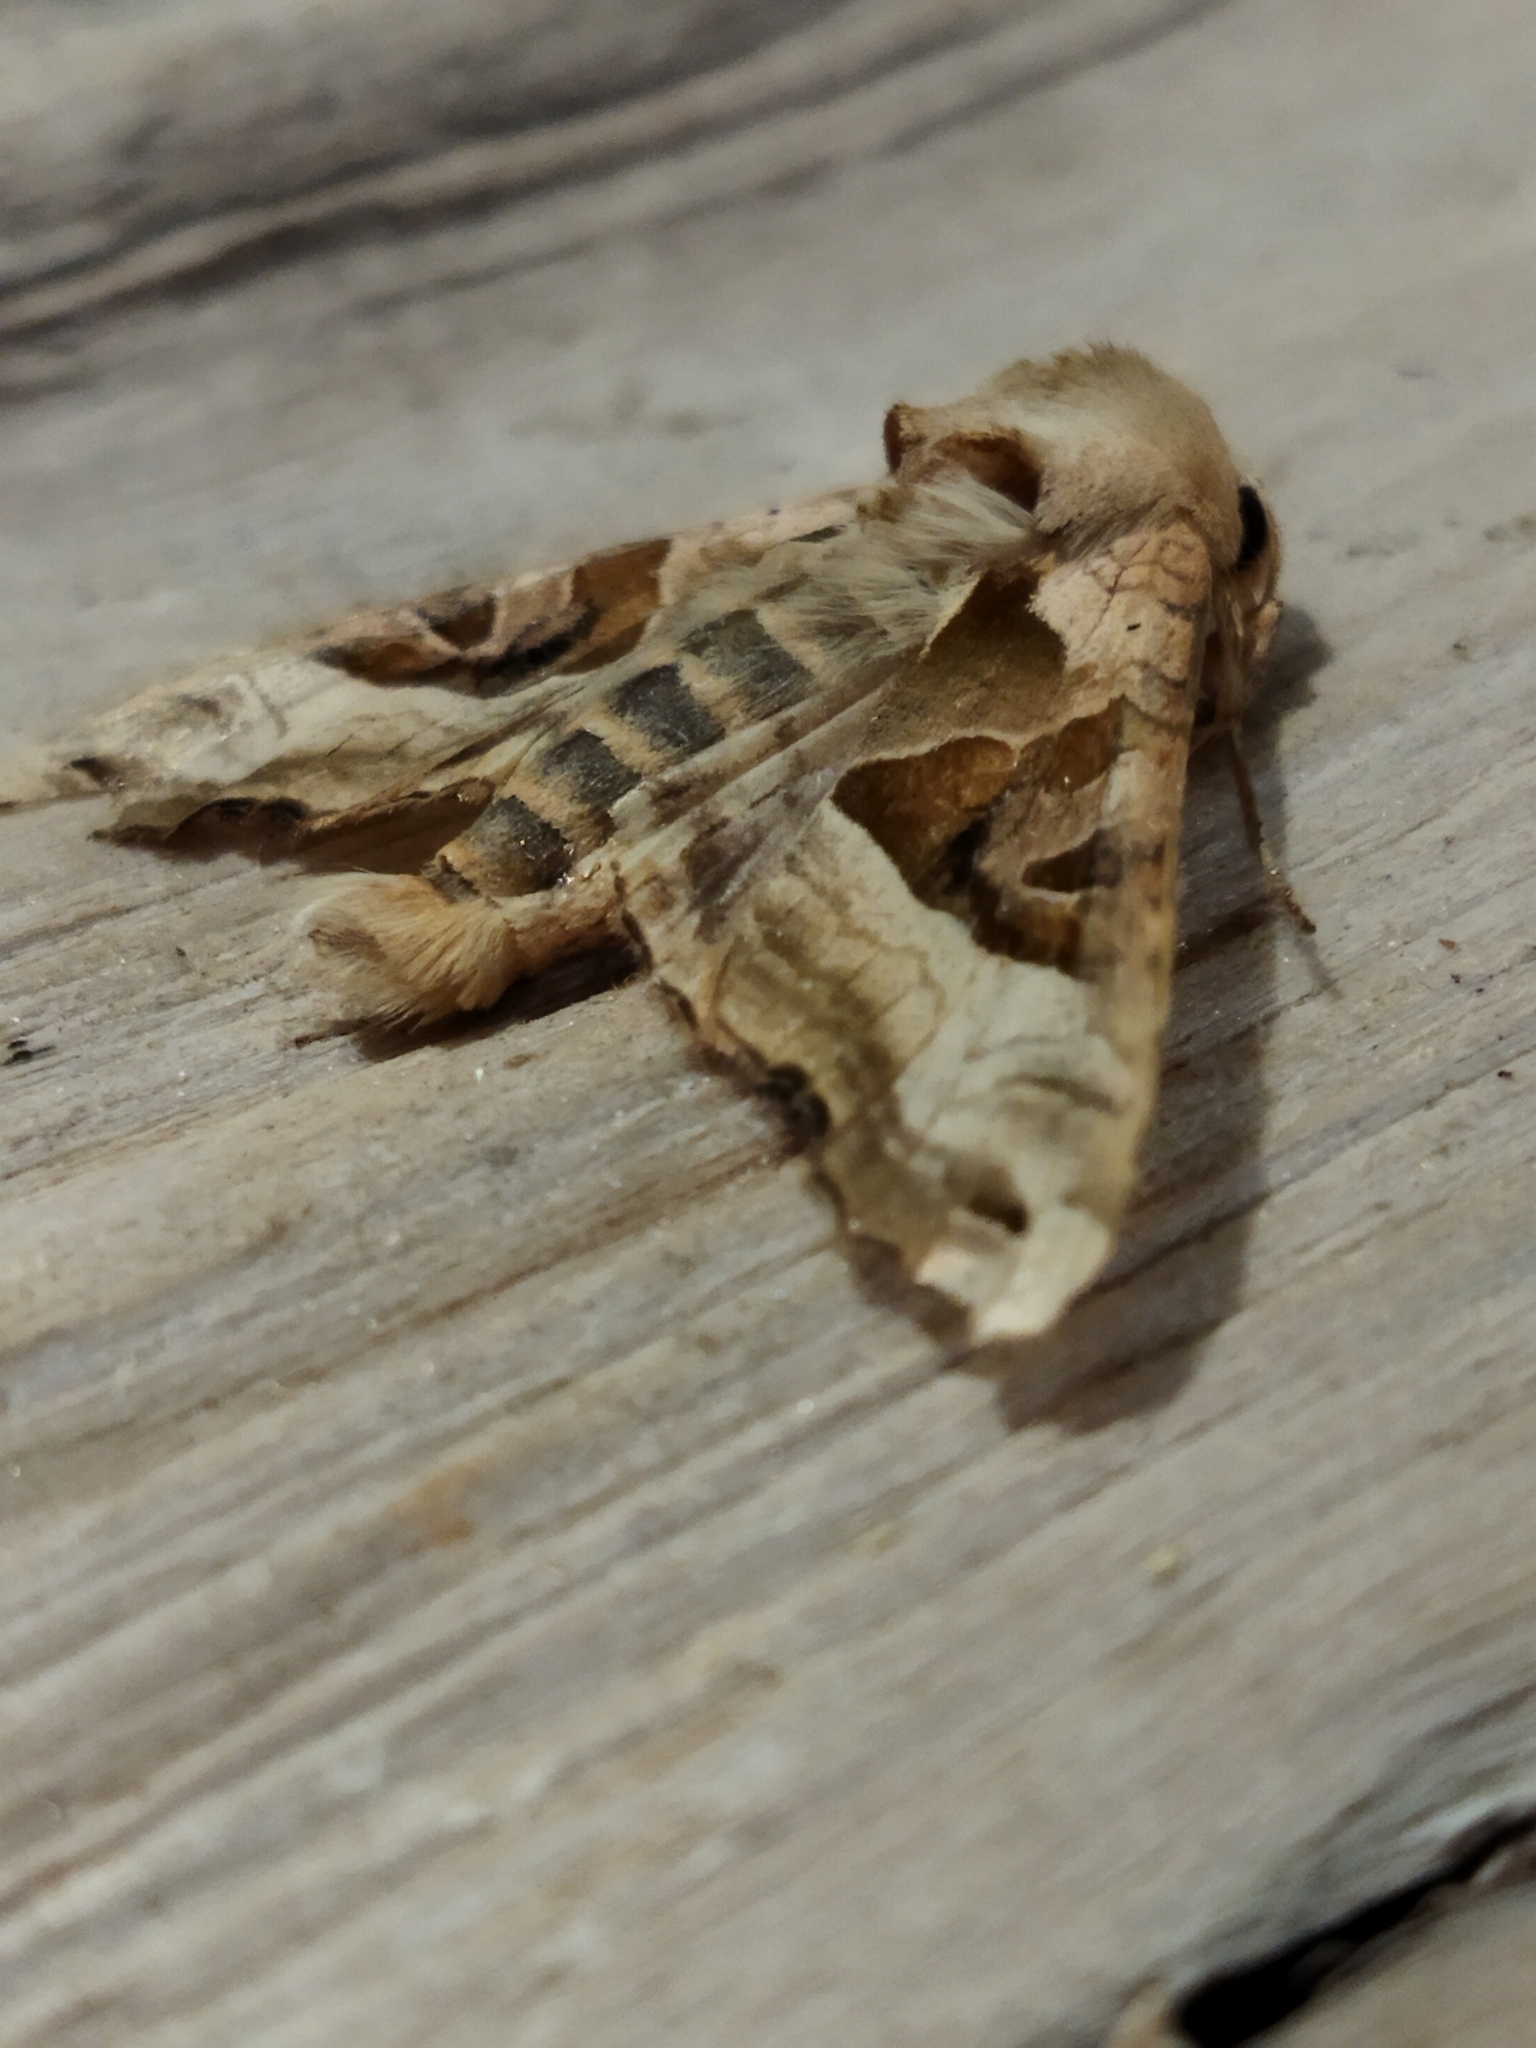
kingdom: Animalia
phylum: Arthropoda
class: Insecta
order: Lepidoptera
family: Noctuidae
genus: Phlogophora
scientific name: Phlogophora meticulosa
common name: Angle shades
